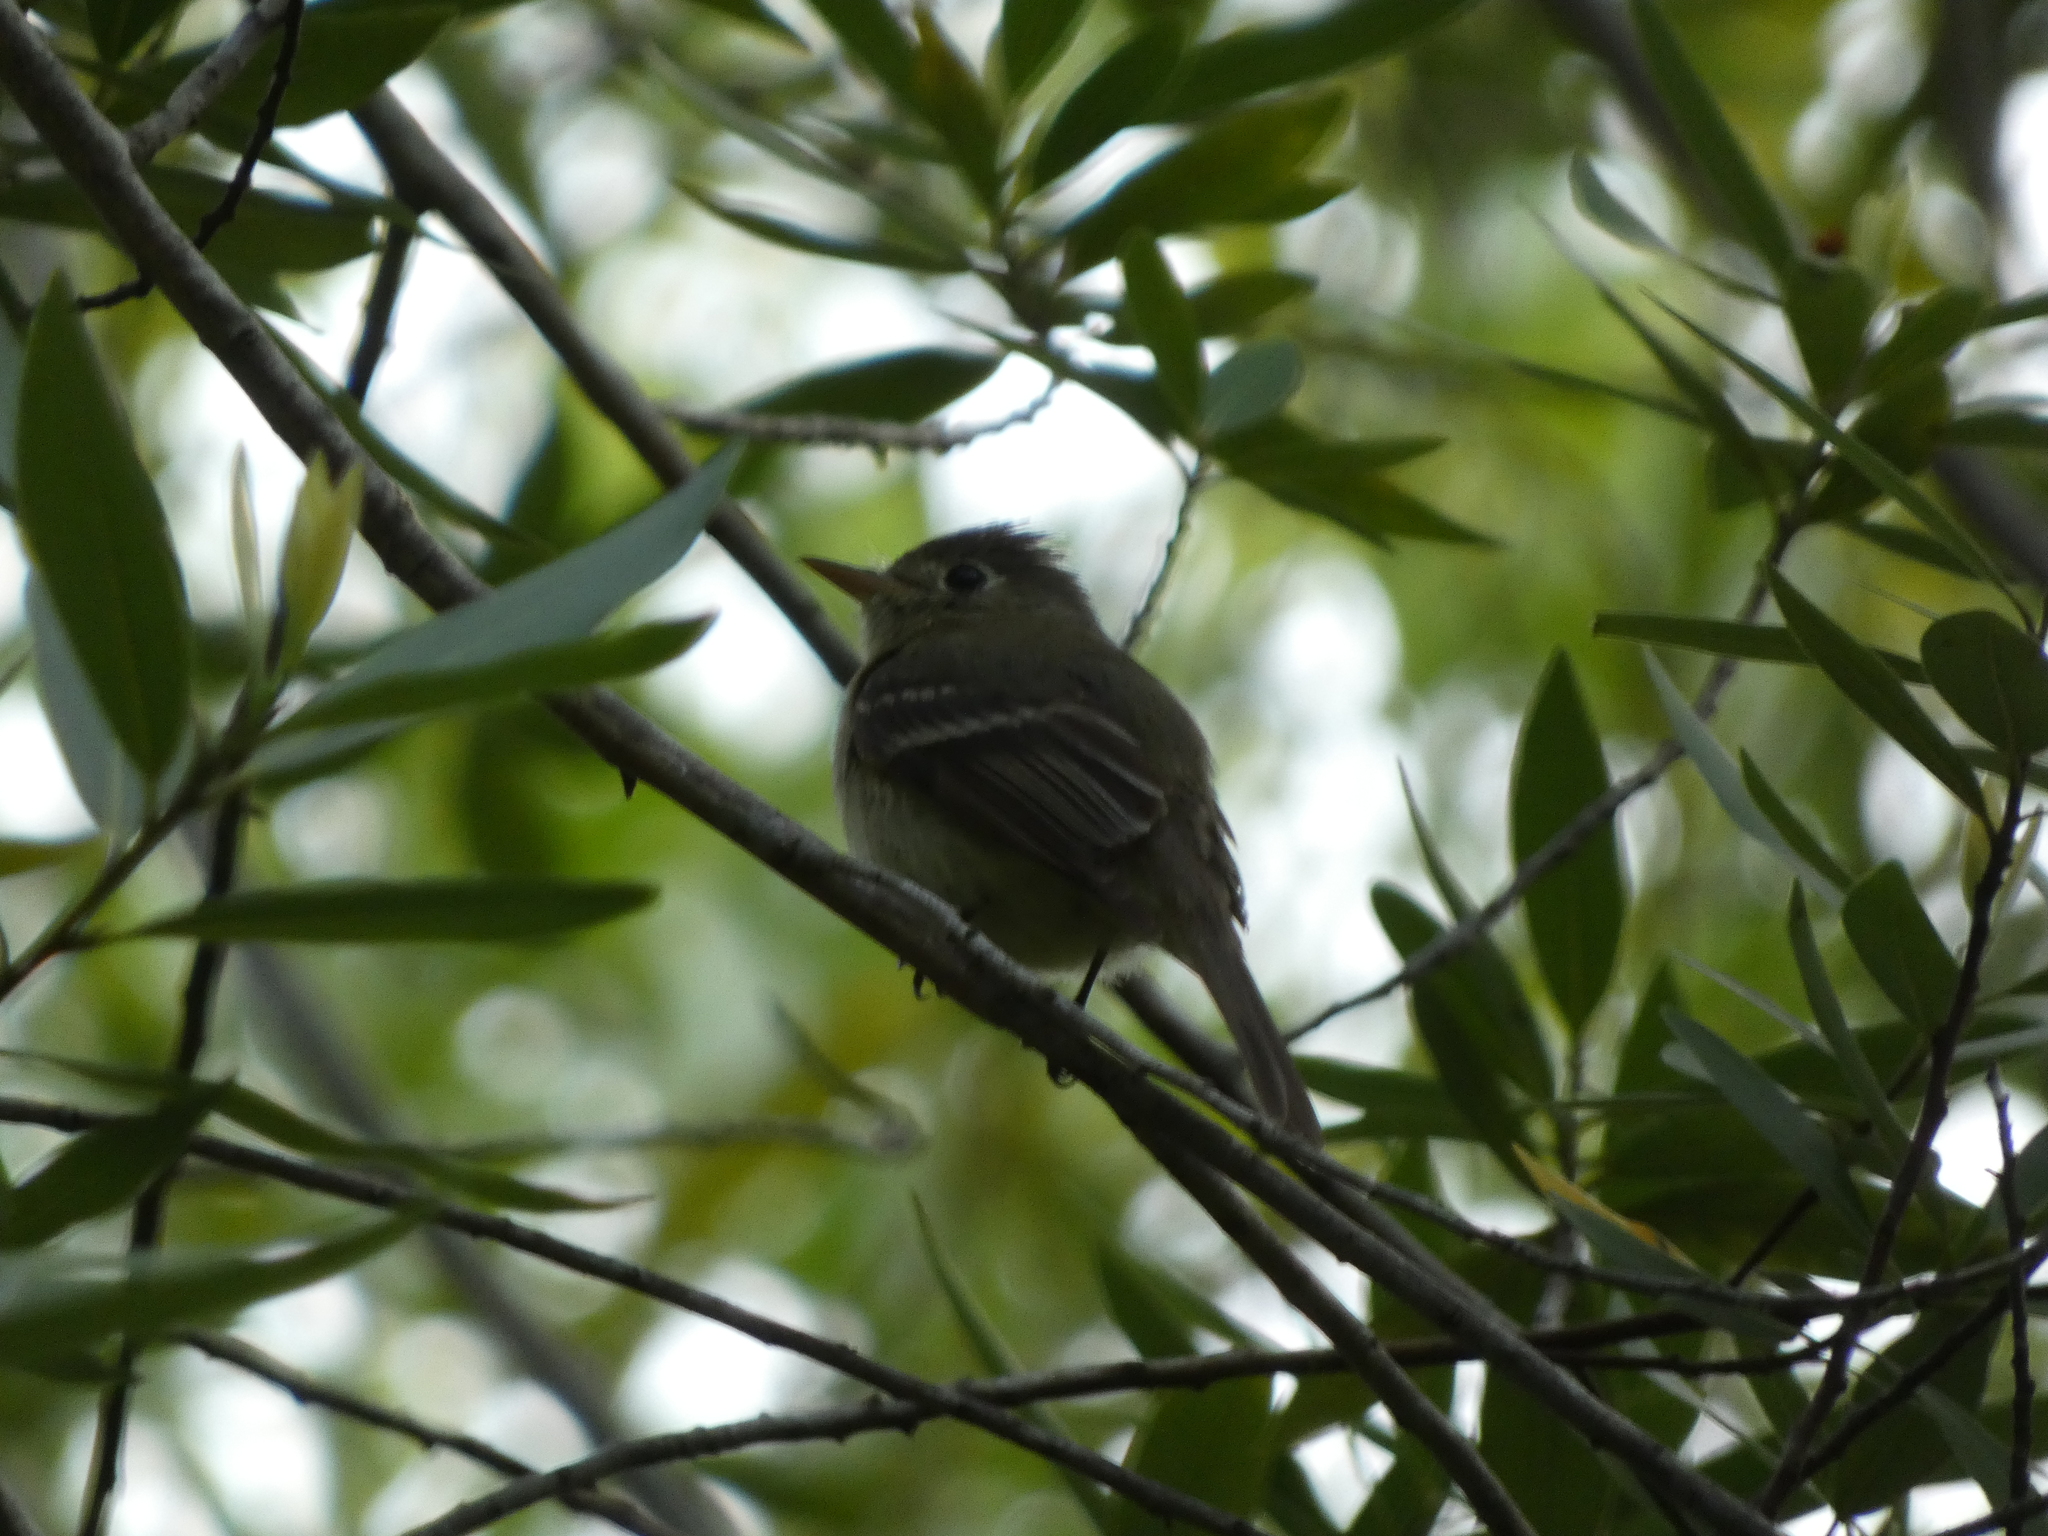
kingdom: Animalia
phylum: Chordata
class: Aves
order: Passeriformes
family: Tyrannidae
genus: Empidonax
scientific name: Empidonax difficilis
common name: Pacific-slope flycatcher
